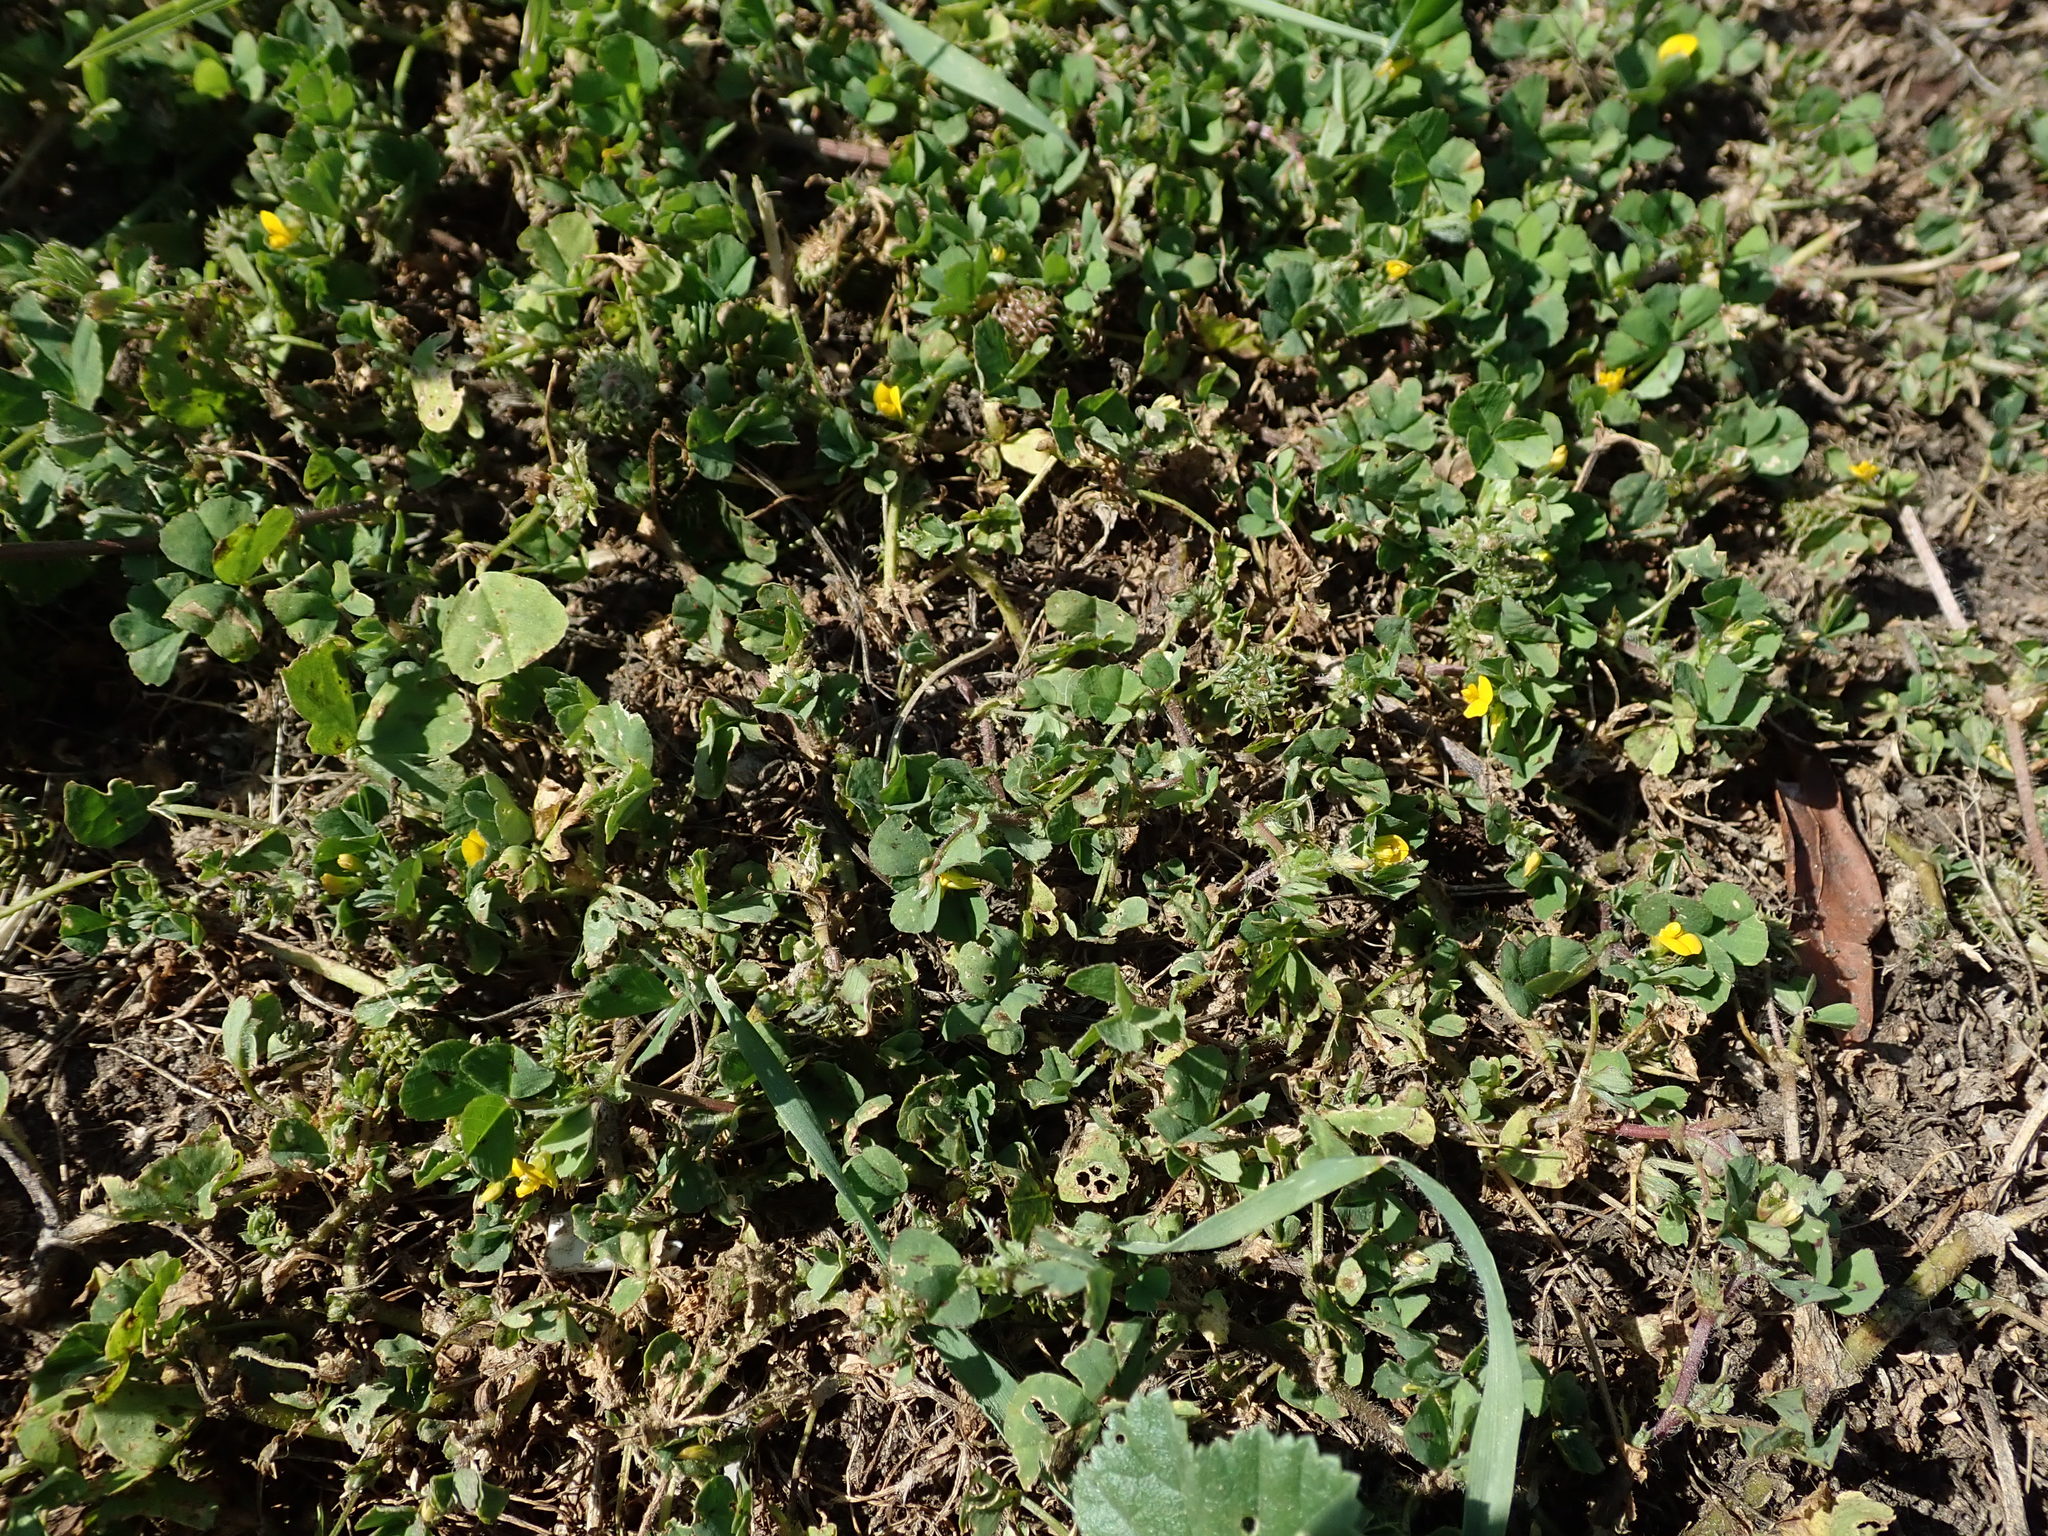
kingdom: Plantae
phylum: Tracheophyta
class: Magnoliopsida
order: Fabales
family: Fabaceae
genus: Medicago
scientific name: Medicago arabica
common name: Spotted medick
